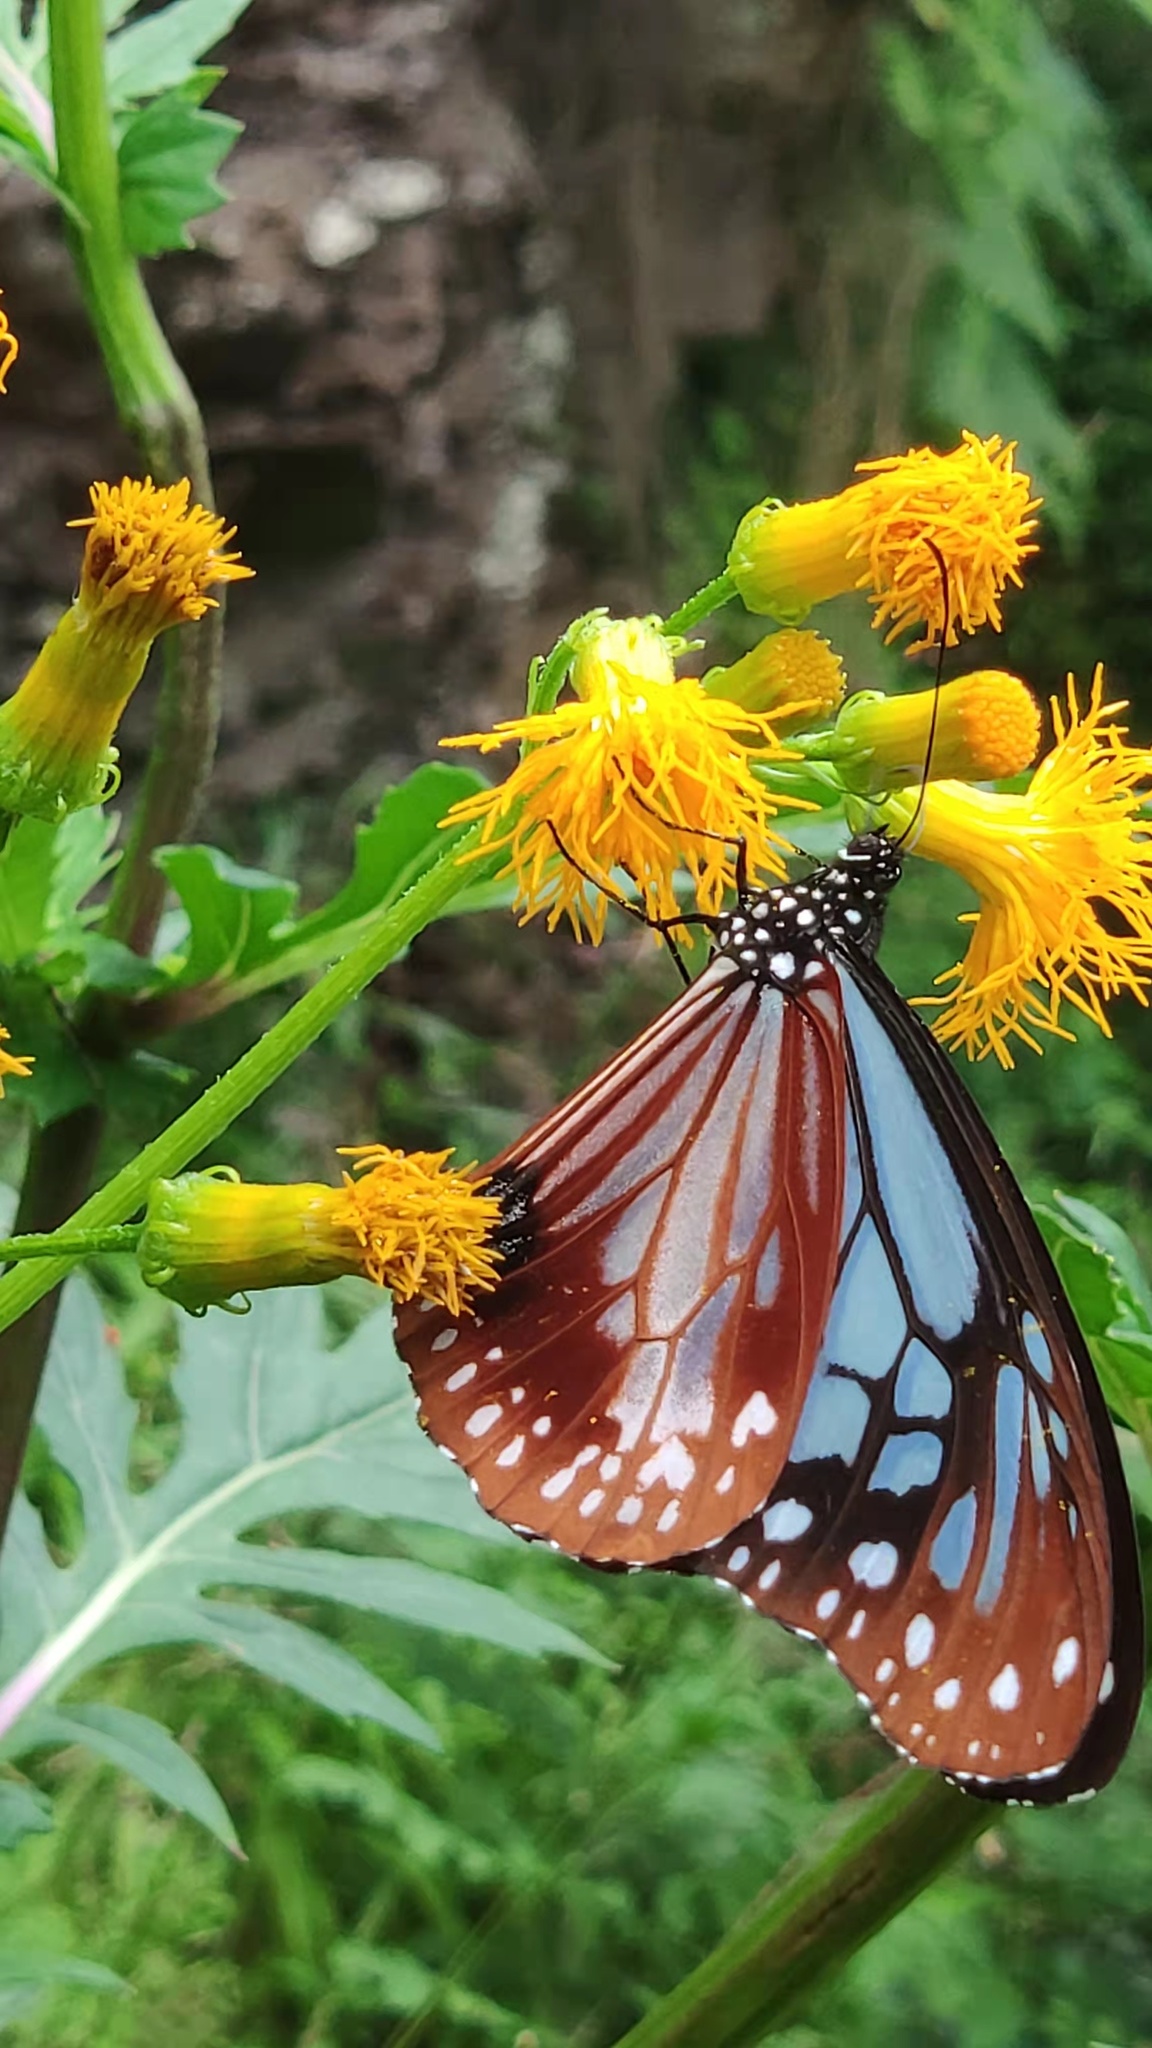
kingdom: Animalia
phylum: Arthropoda
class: Insecta
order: Lepidoptera
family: Nymphalidae
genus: Parantica
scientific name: Parantica sita
